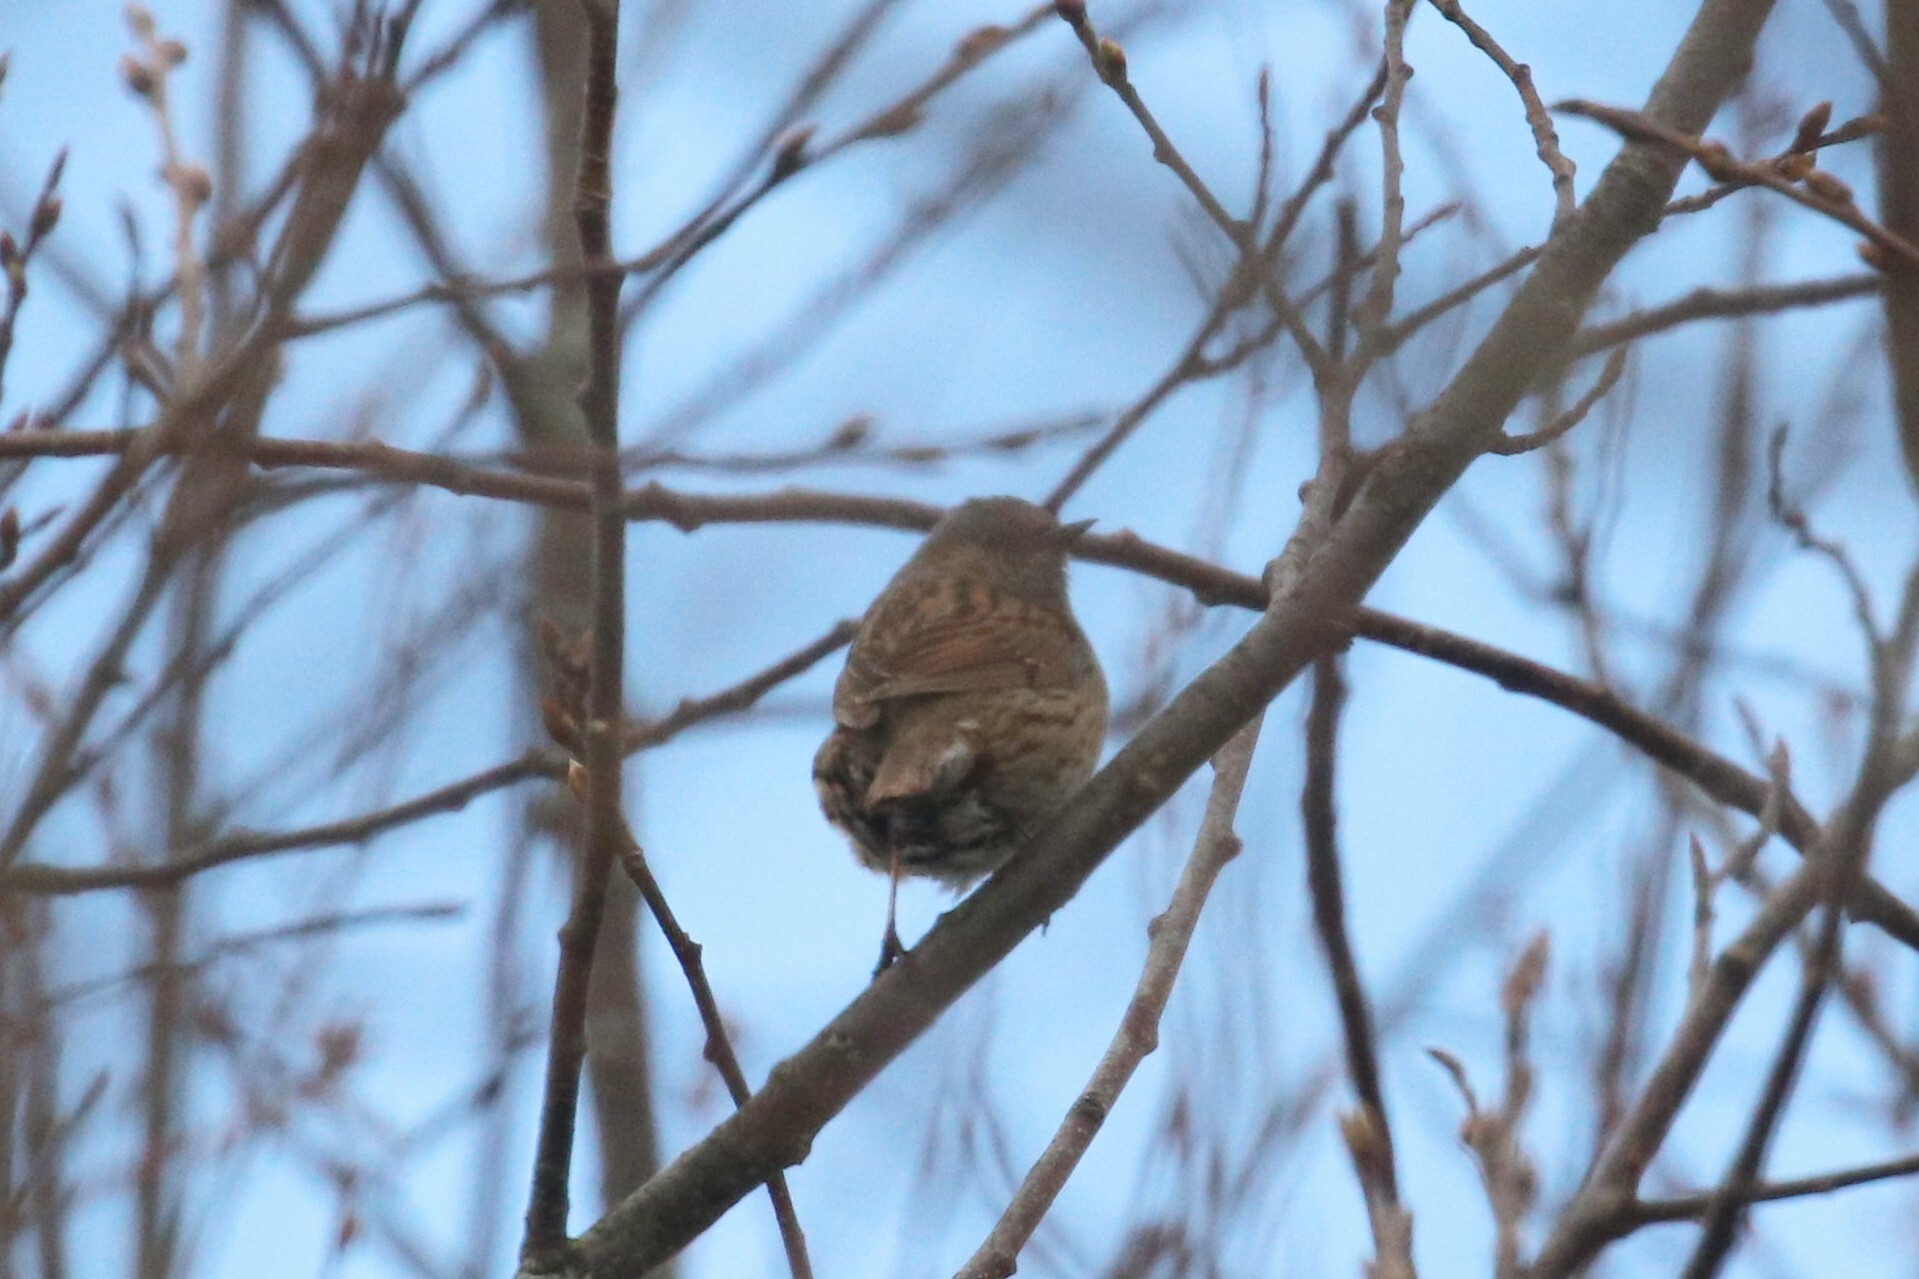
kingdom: Animalia
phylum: Chordata
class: Aves
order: Passeriformes
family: Prunellidae
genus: Prunella
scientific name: Prunella modularis
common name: Dunnock
